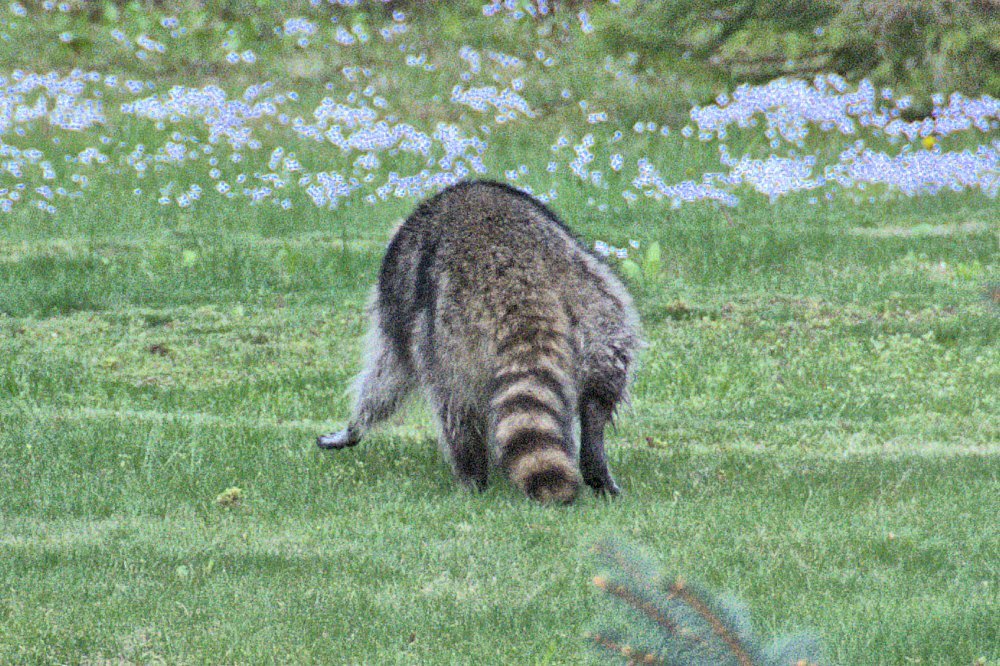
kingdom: Animalia
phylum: Chordata
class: Mammalia
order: Carnivora
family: Procyonidae
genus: Procyon
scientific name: Procyon lotor
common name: Raccoon
